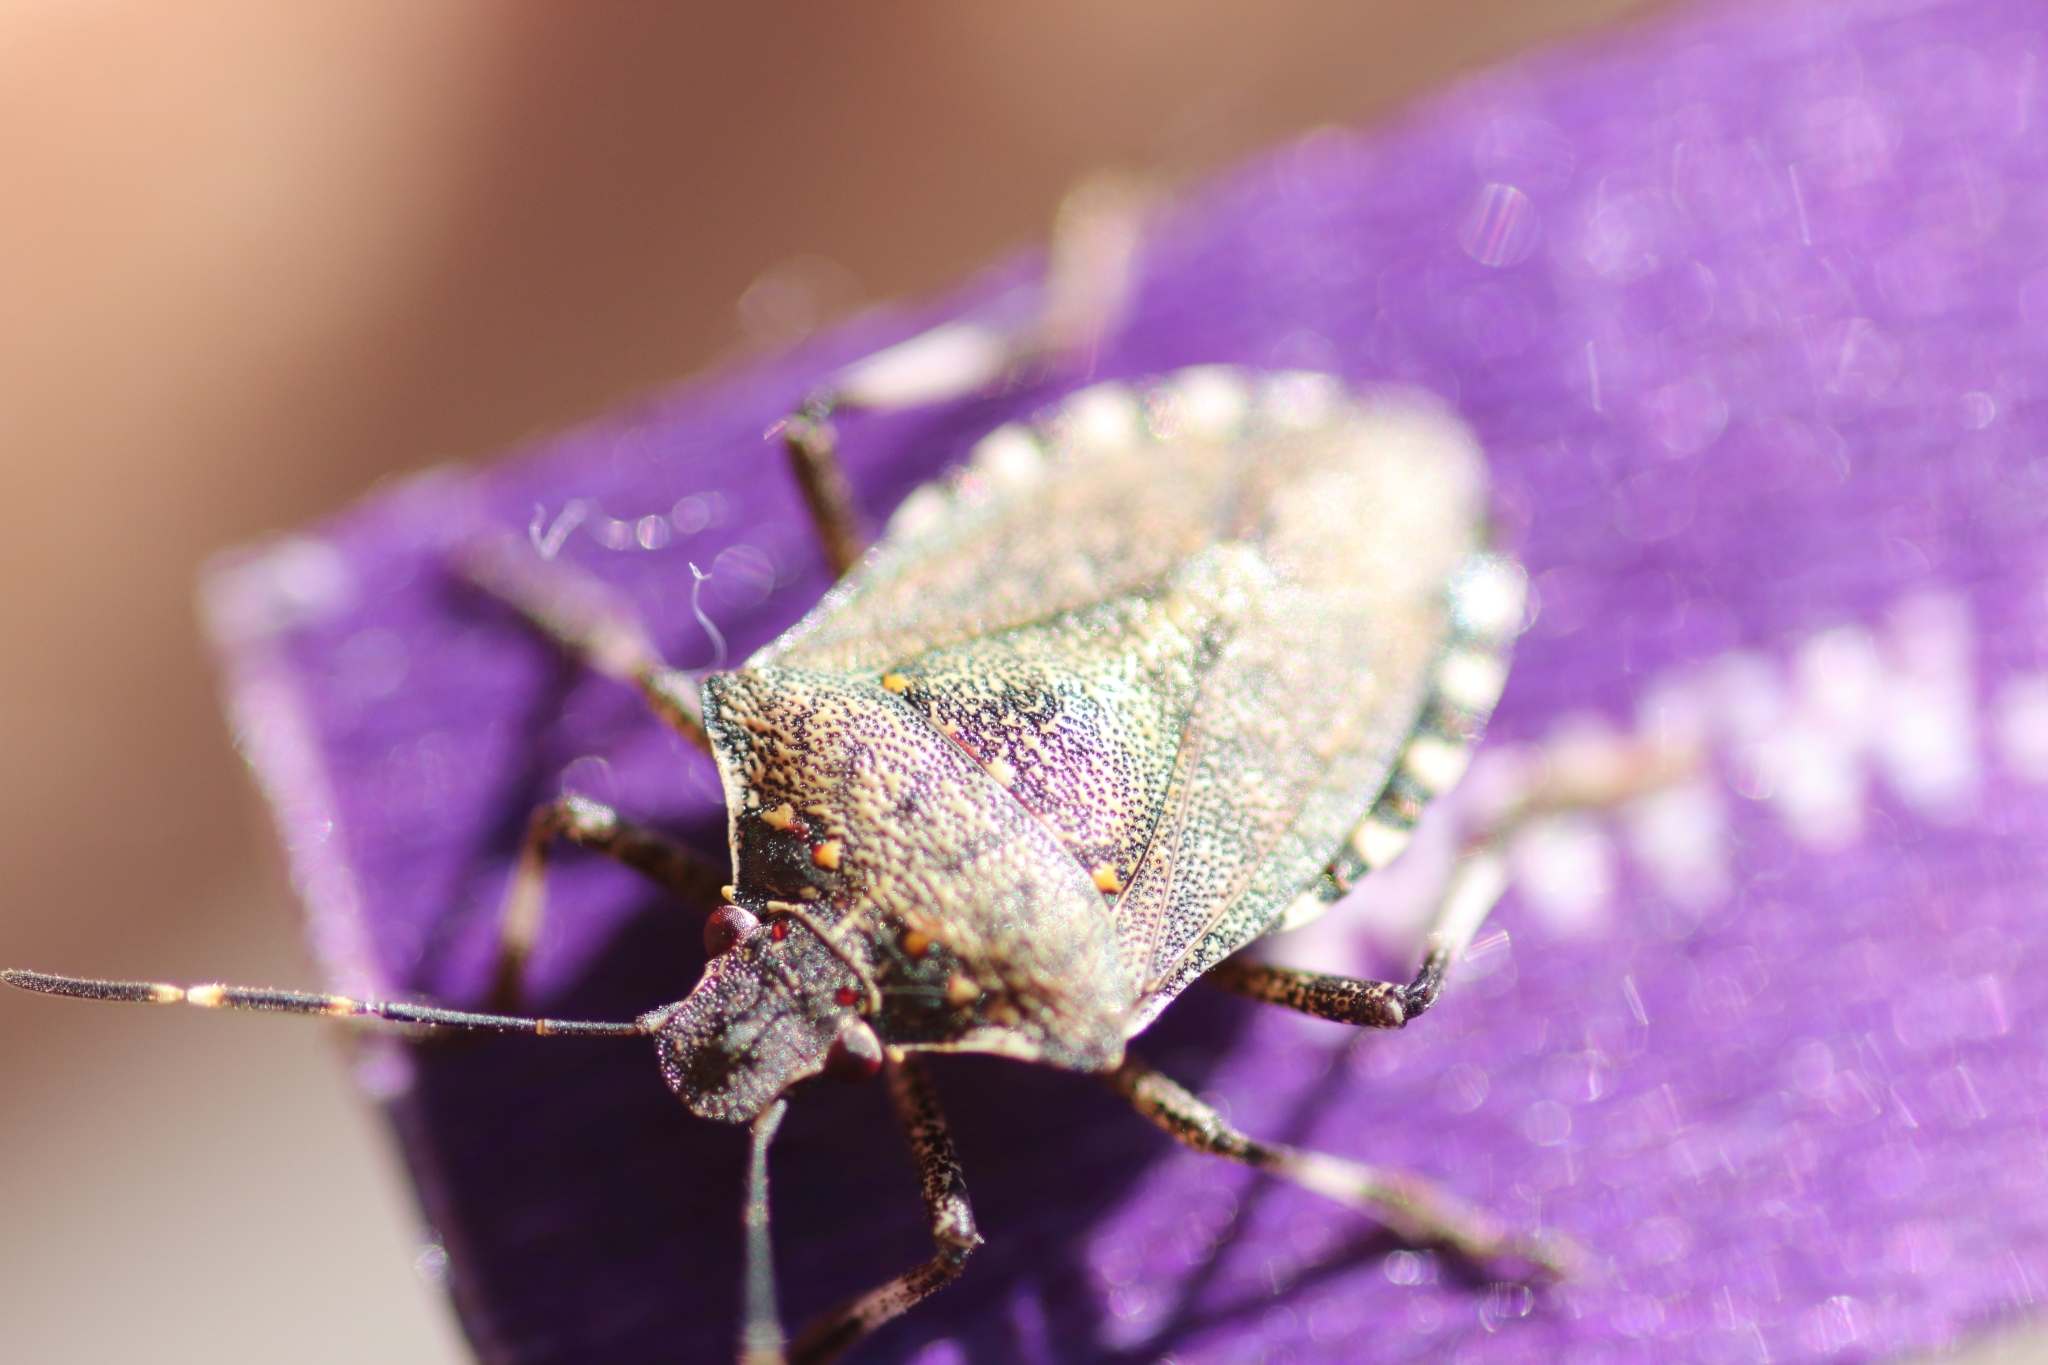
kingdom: Animalia
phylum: Arthropoda
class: Insecta
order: Hemiptera
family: Pentatomidae
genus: Halyomorpha
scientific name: Halyomorpha halys
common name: Brown marmorated stink bug
